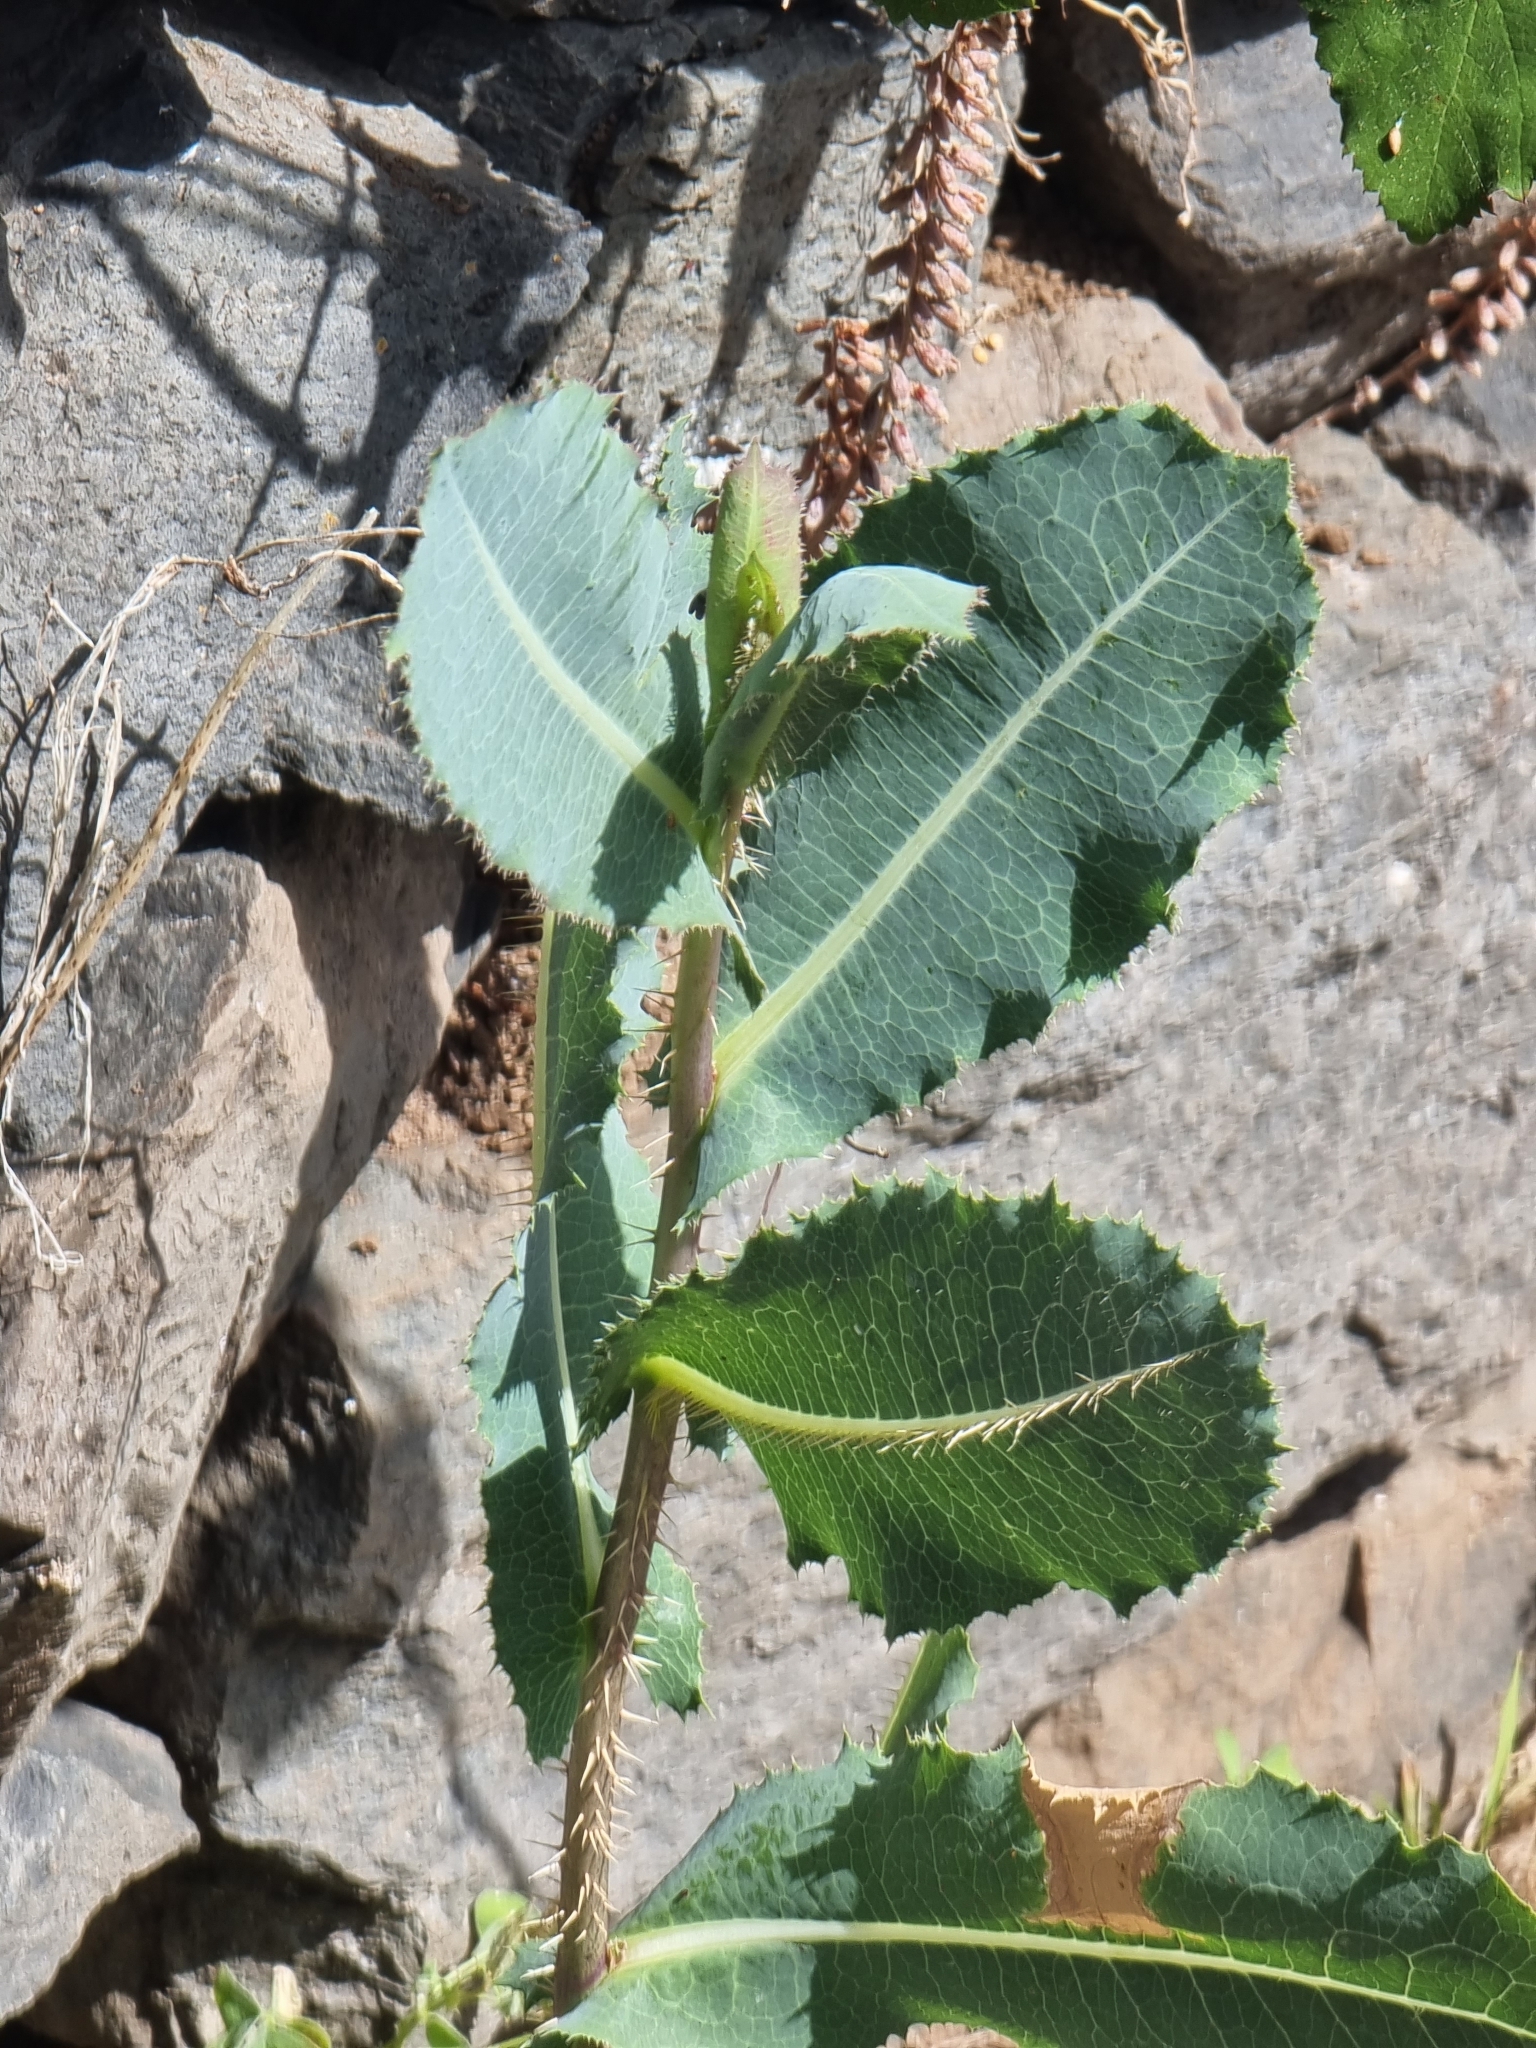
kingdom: Plantae
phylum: Tracheophyta
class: Magnoliopsida
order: Asterales
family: Asteraceae
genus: Lactuca
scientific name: Lactuca serriola
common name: Prickly lettuce
